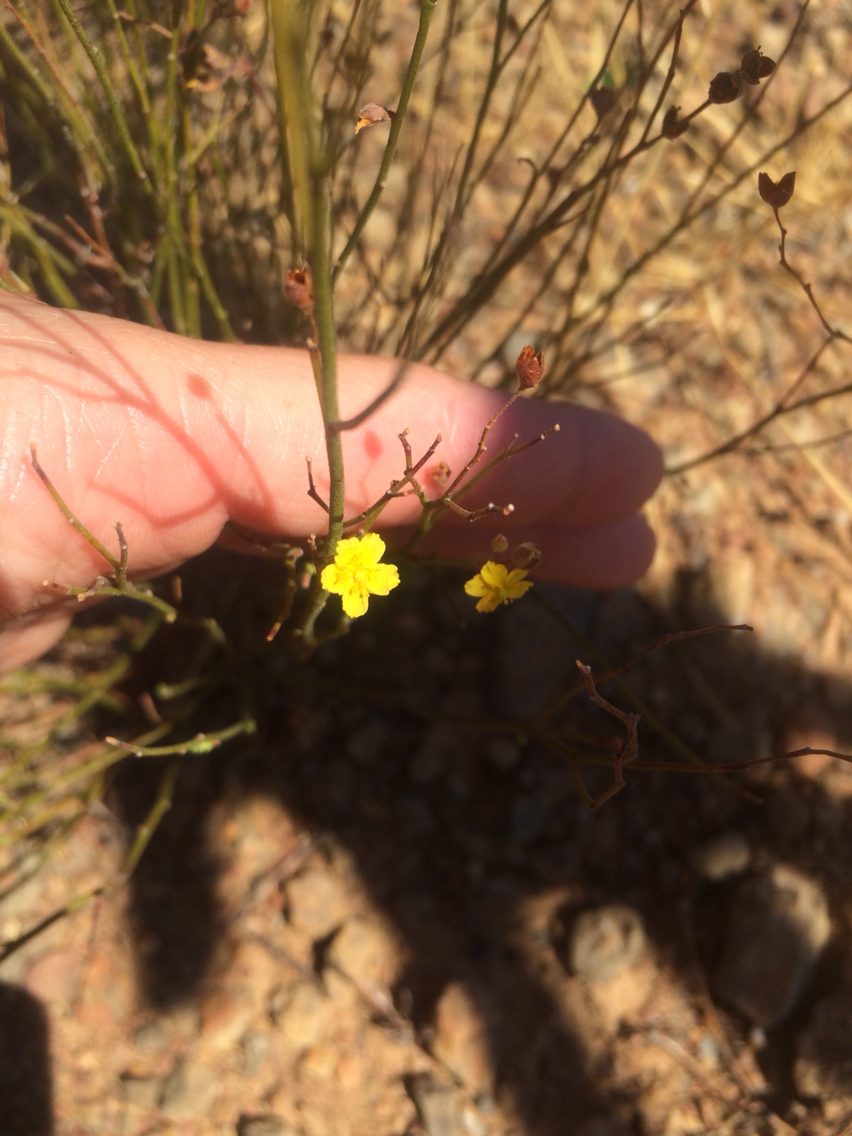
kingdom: Plantae
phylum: Tracheophyta
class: Magnoliopsida
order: Malvales
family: Cistaceae
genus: Crocanthemum
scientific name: Crocanthemum scoparium
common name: Broom-rose
